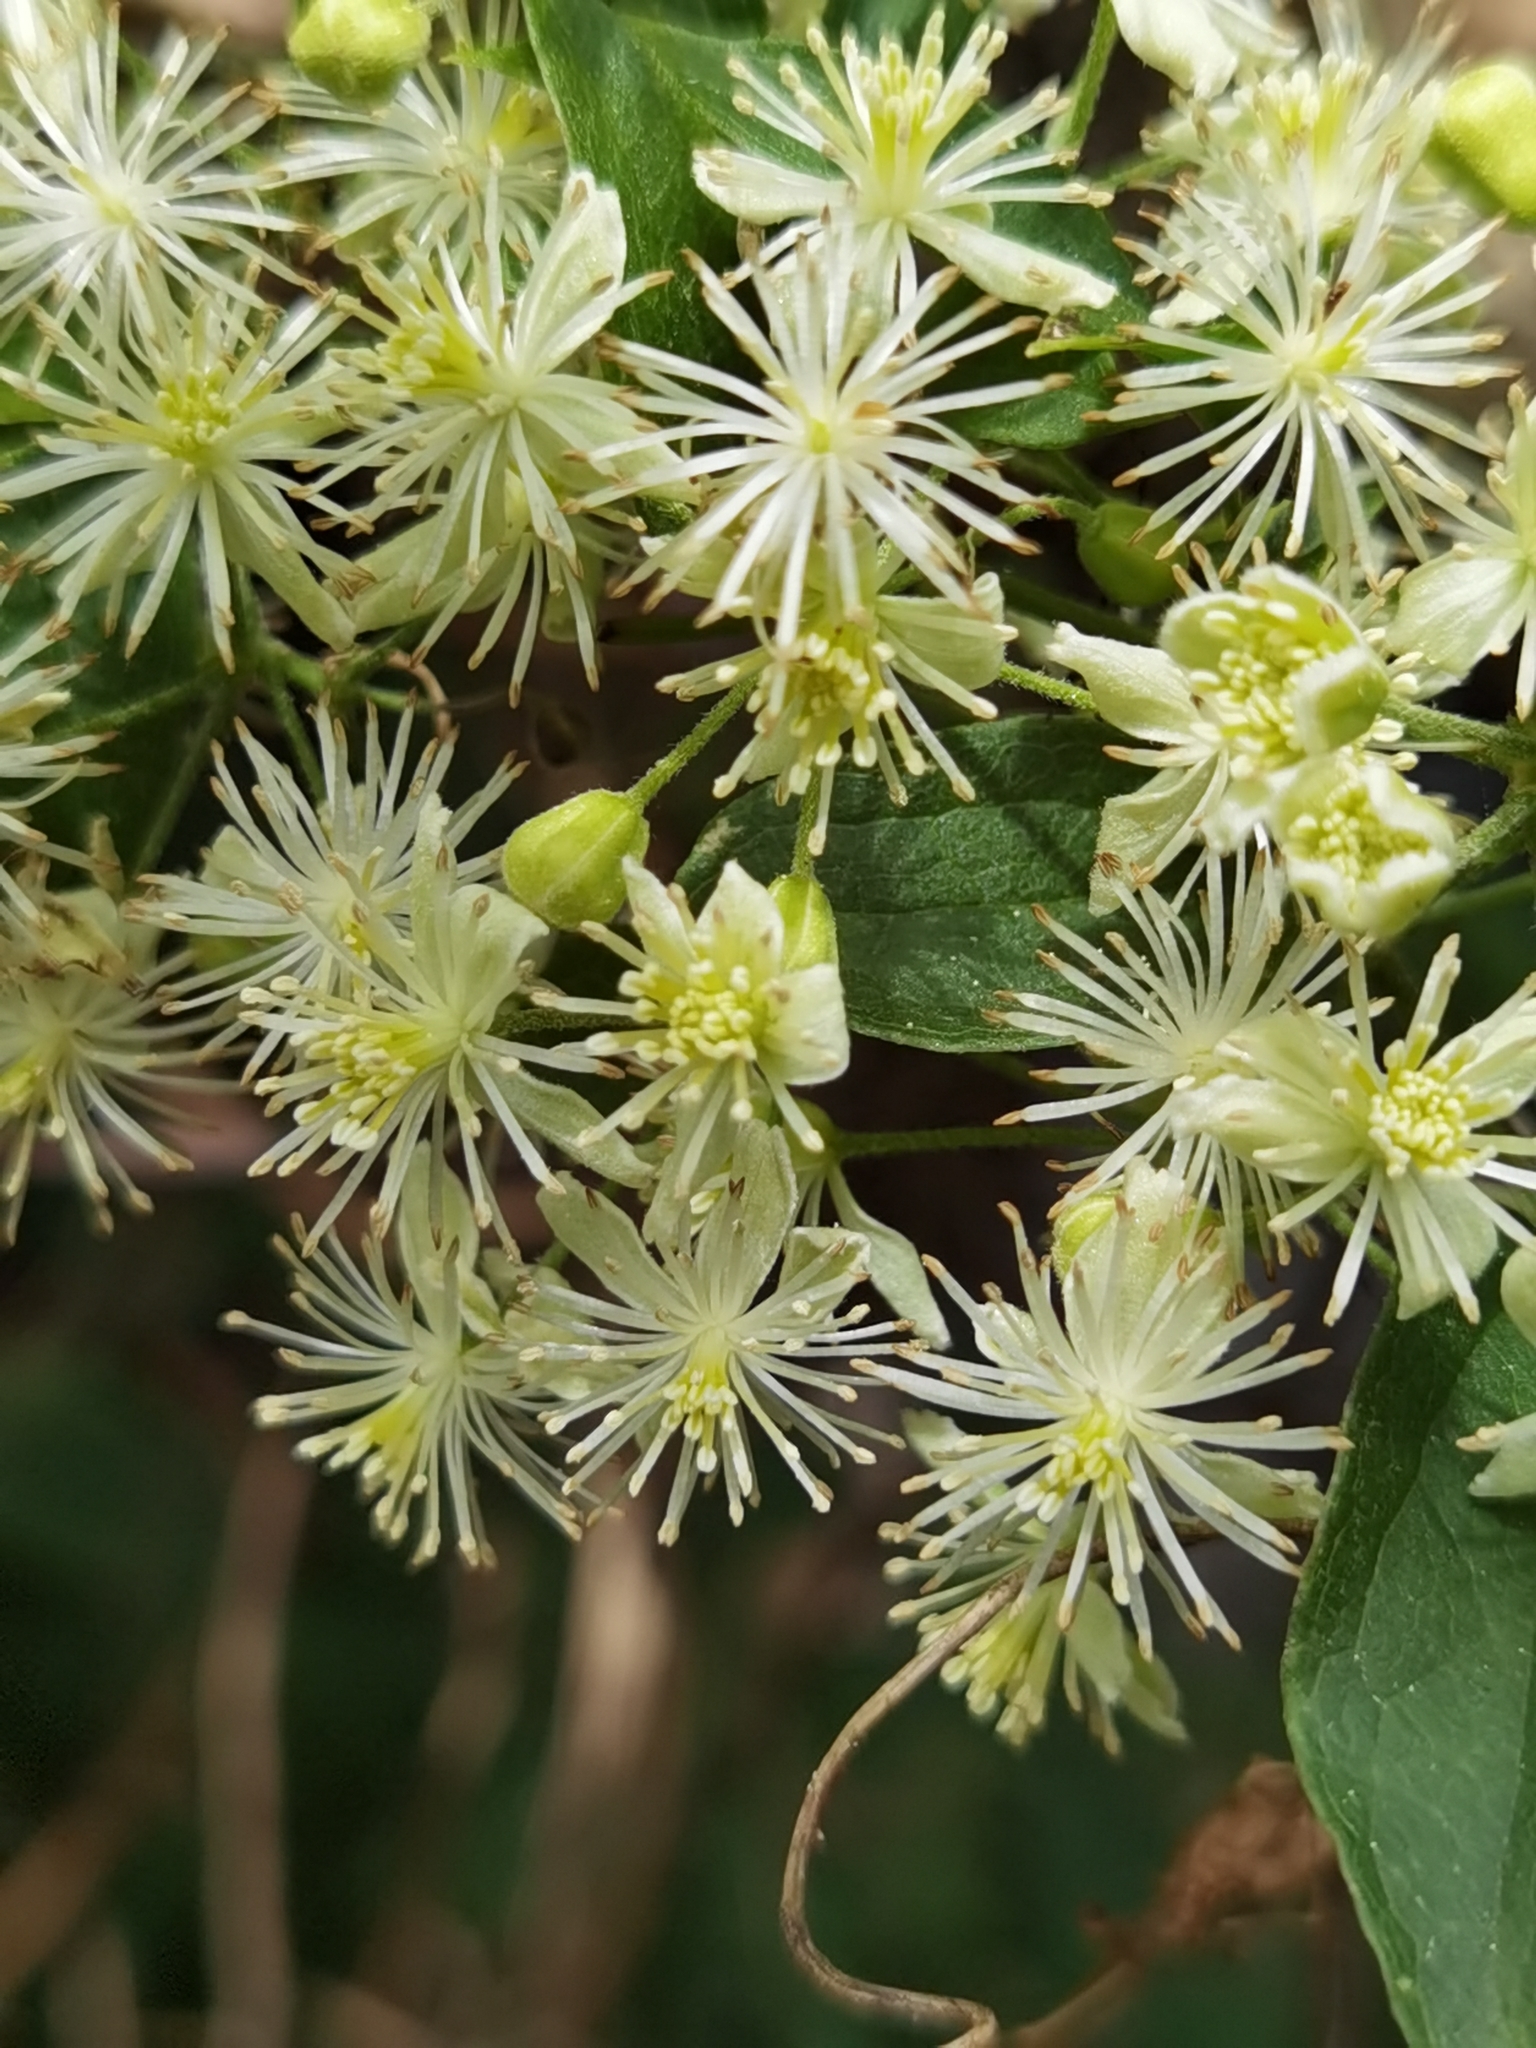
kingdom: Plantae
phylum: Tracheophyta
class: Magnoliopsida
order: Ranunculales
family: Ranunculaceae
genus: Clematis
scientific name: Clematis polygama
